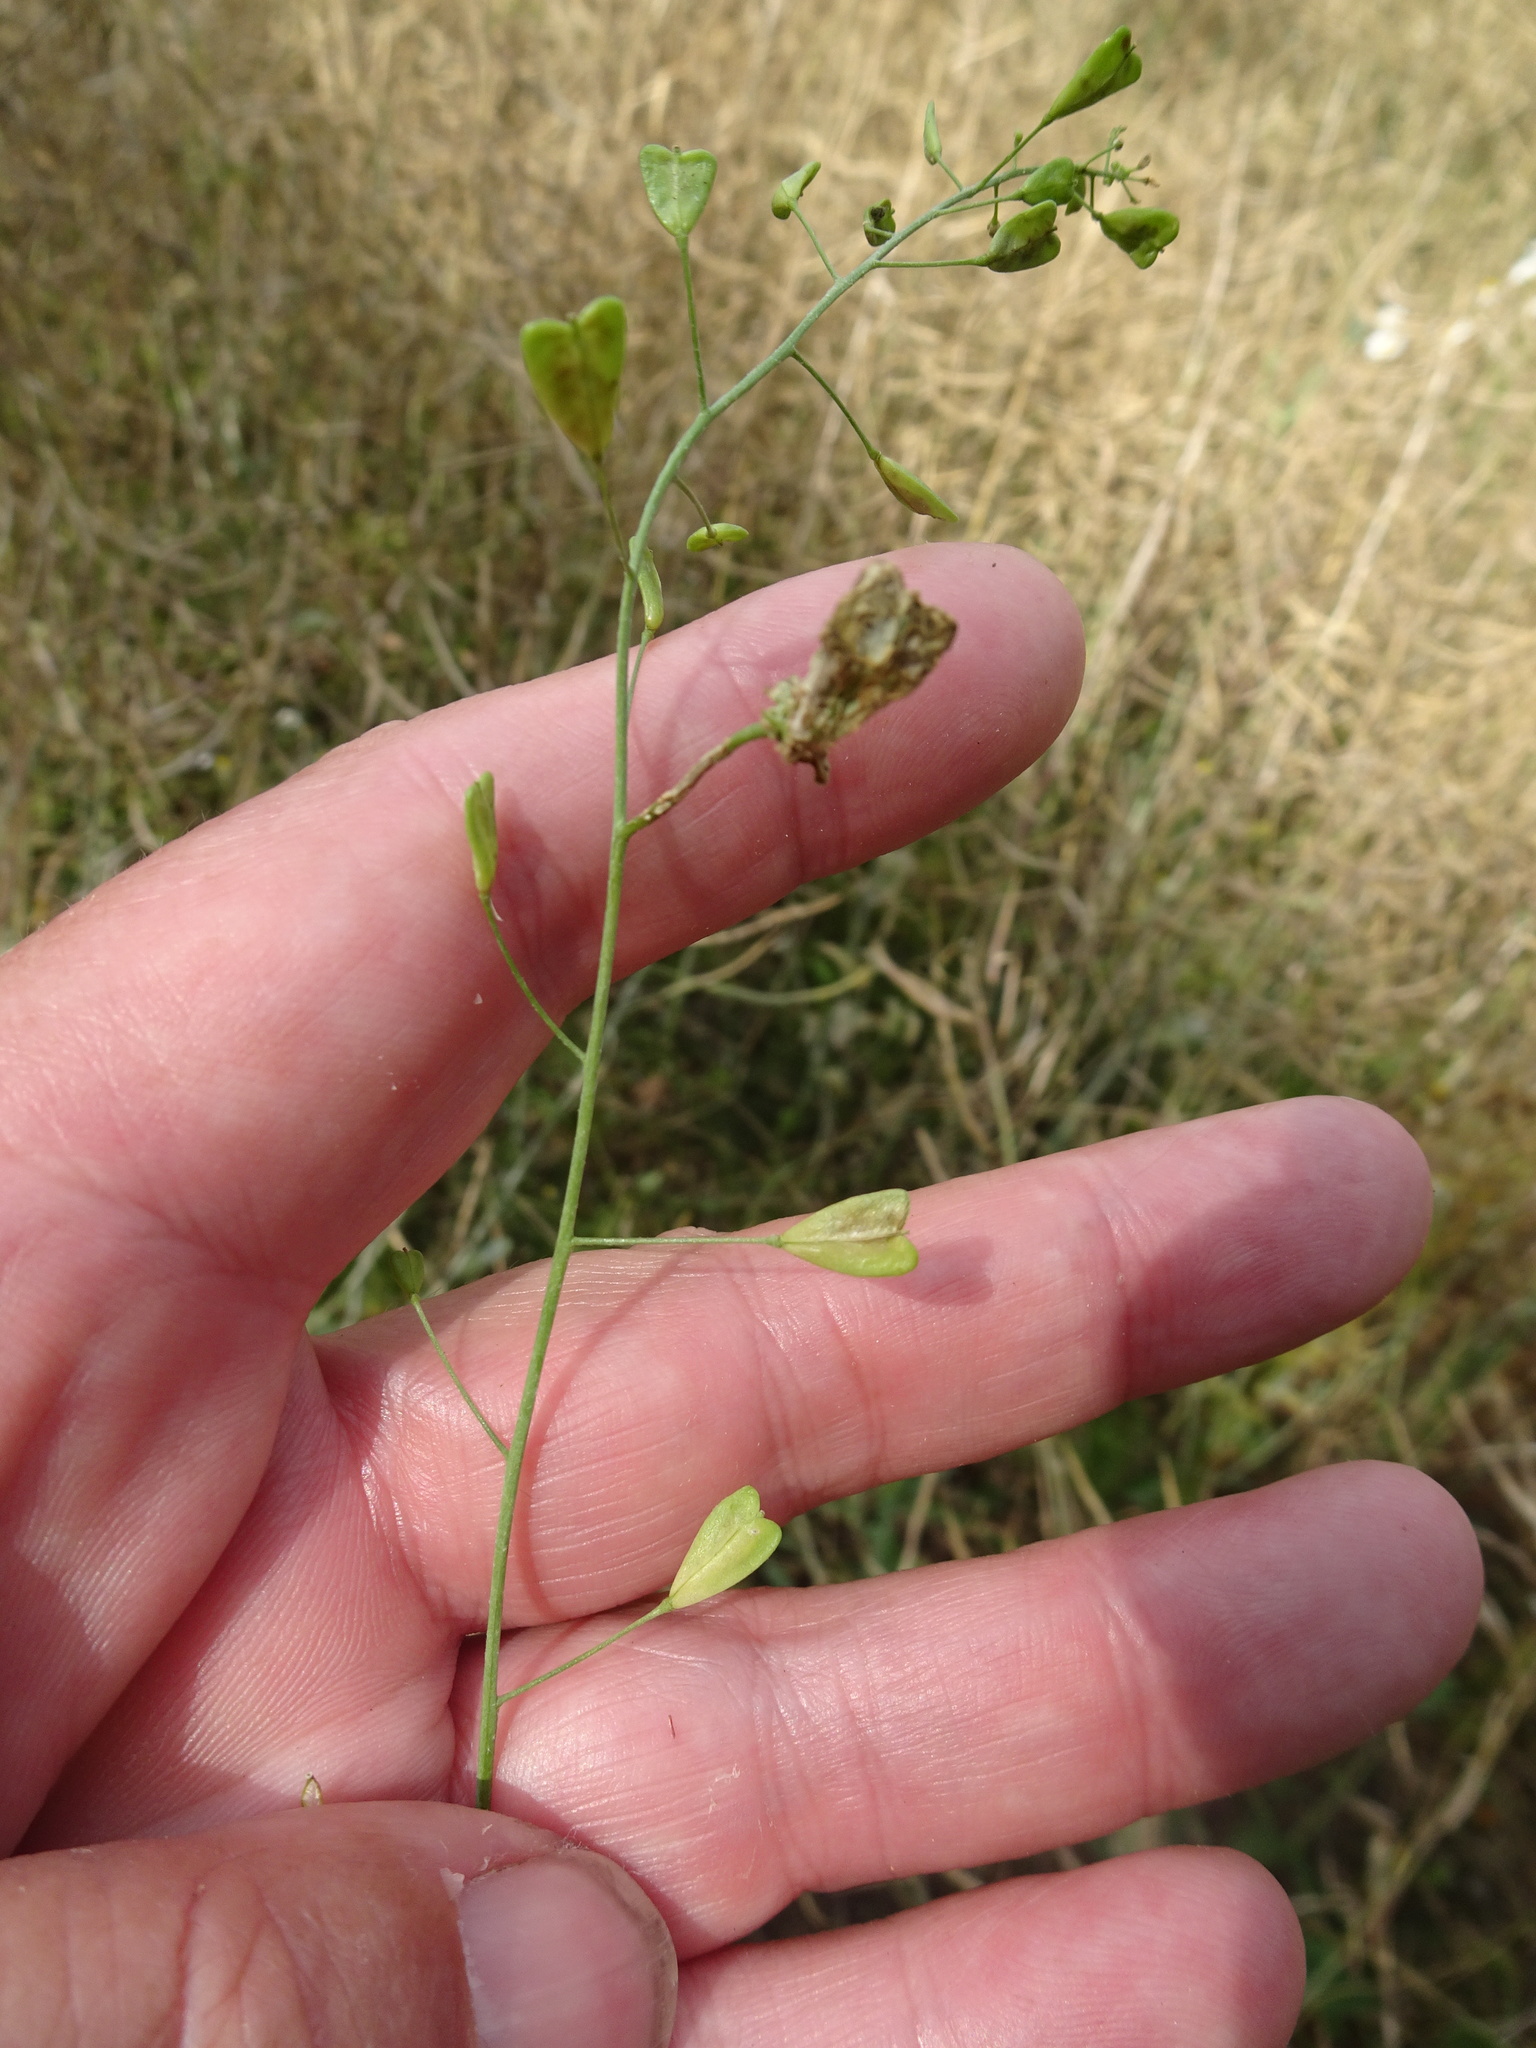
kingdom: Plantae
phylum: Tracheophyta
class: Magnoliopsida
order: Brassicales
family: Brassicaceae
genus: Capsella
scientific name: Capsella bursa-pastoris
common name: Shepherd's purse
